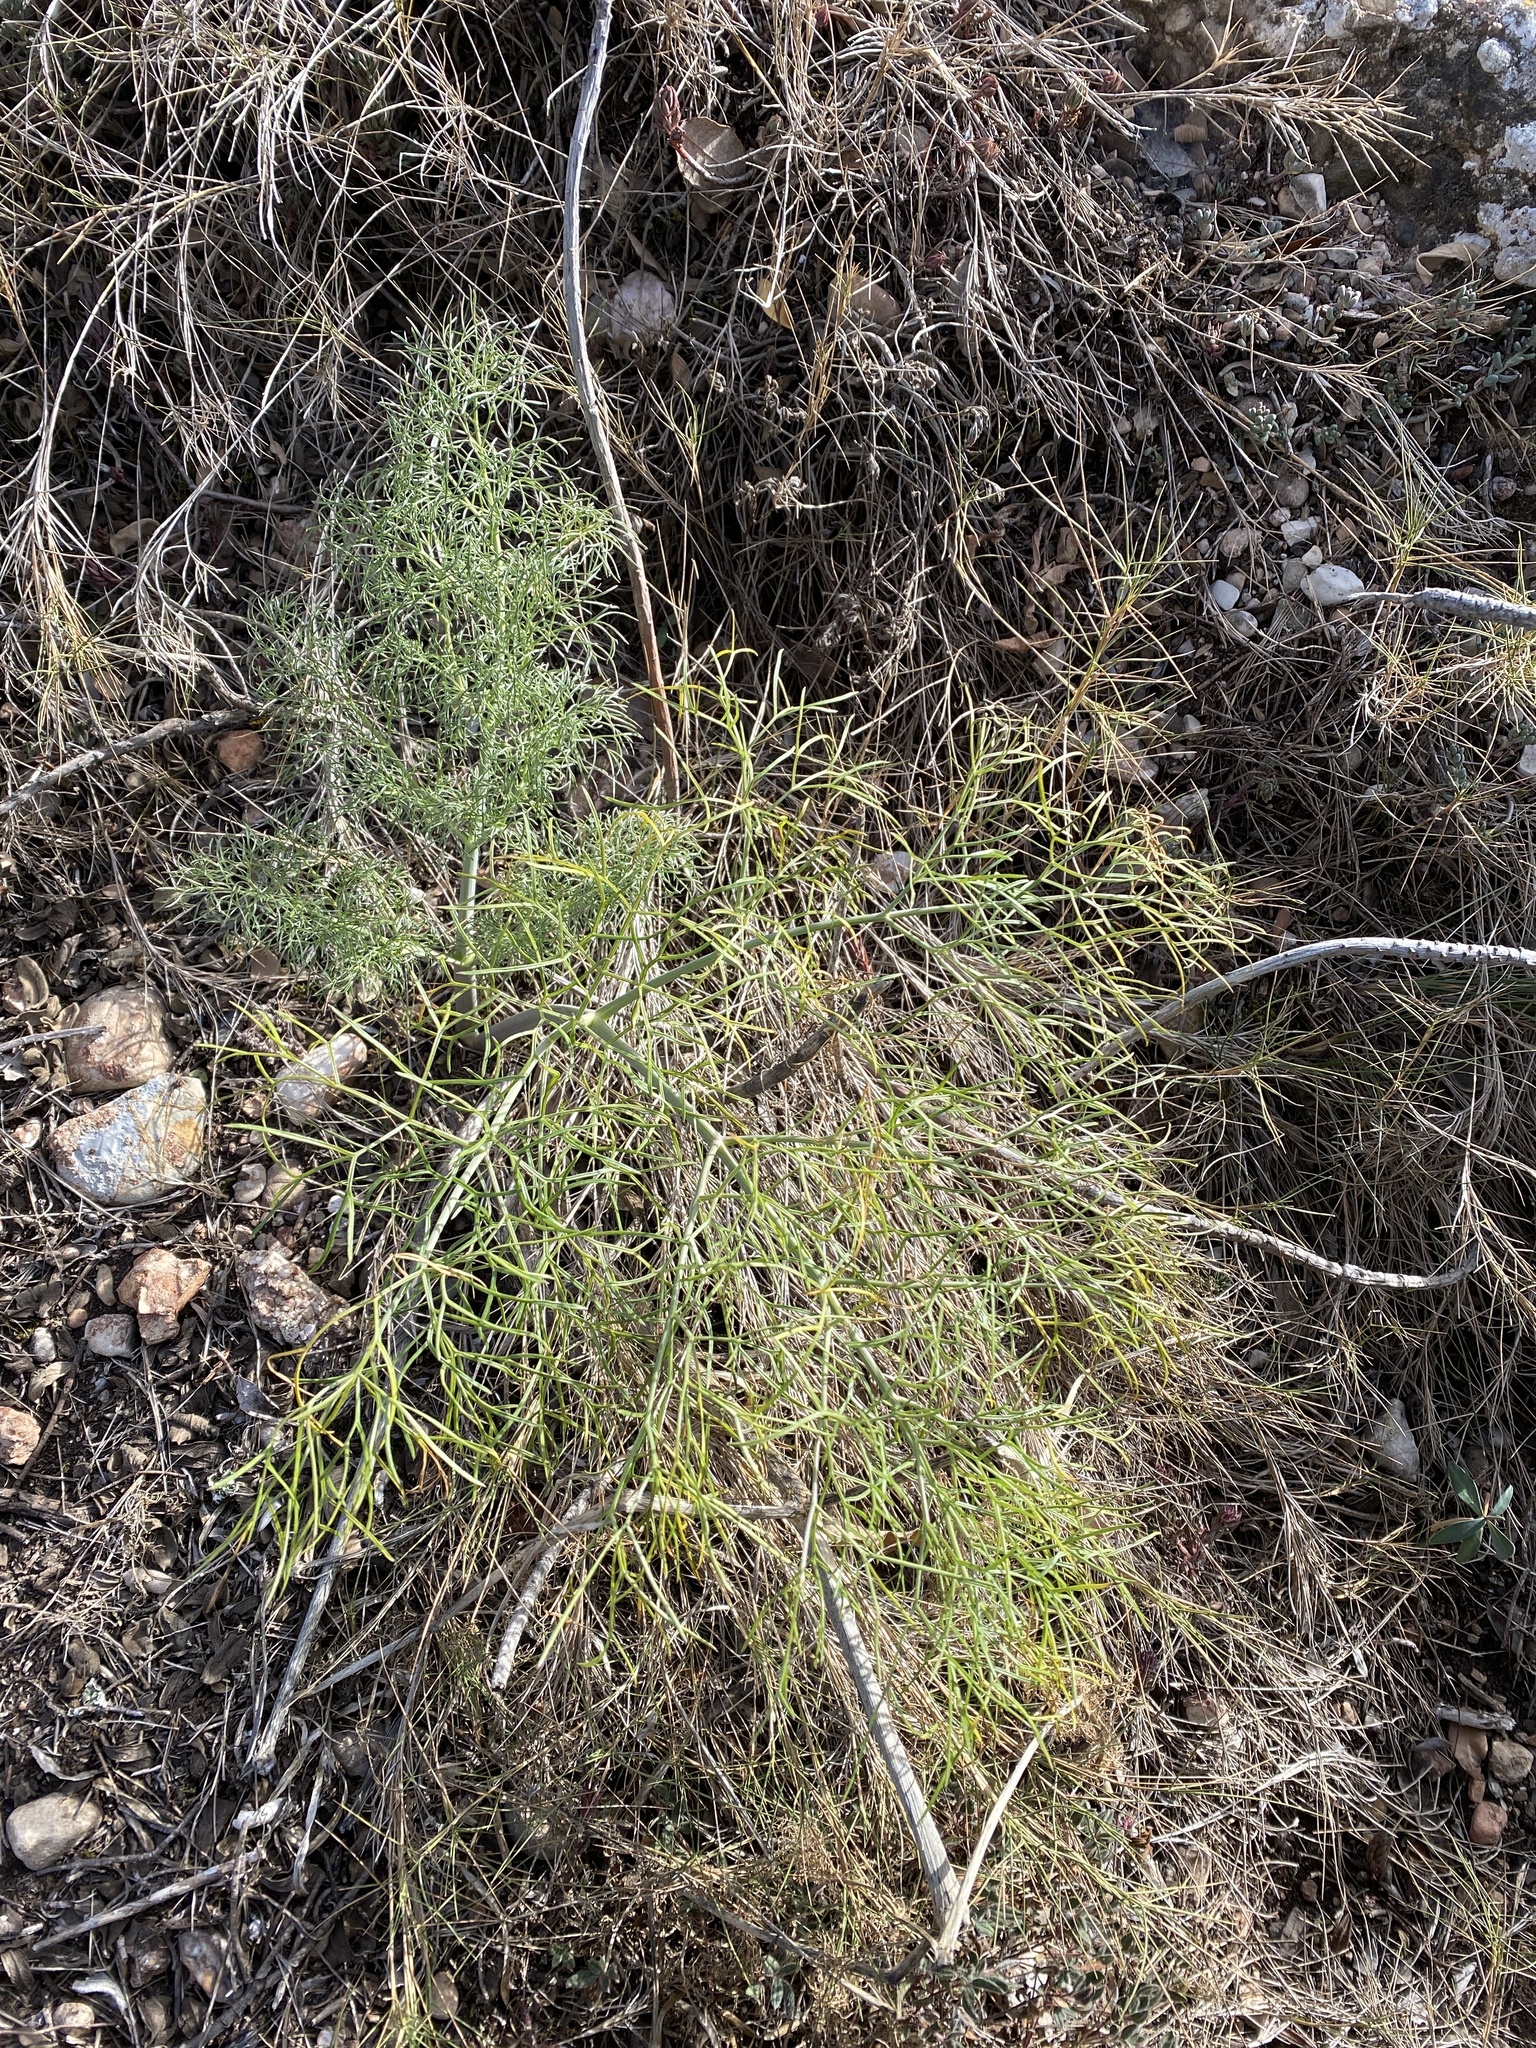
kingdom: Plantae
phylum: Tracheophyta
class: Magnoliopsida
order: Apiales
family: Apiaceae
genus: Ferula
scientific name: Ferula communis
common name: Giant fennel
